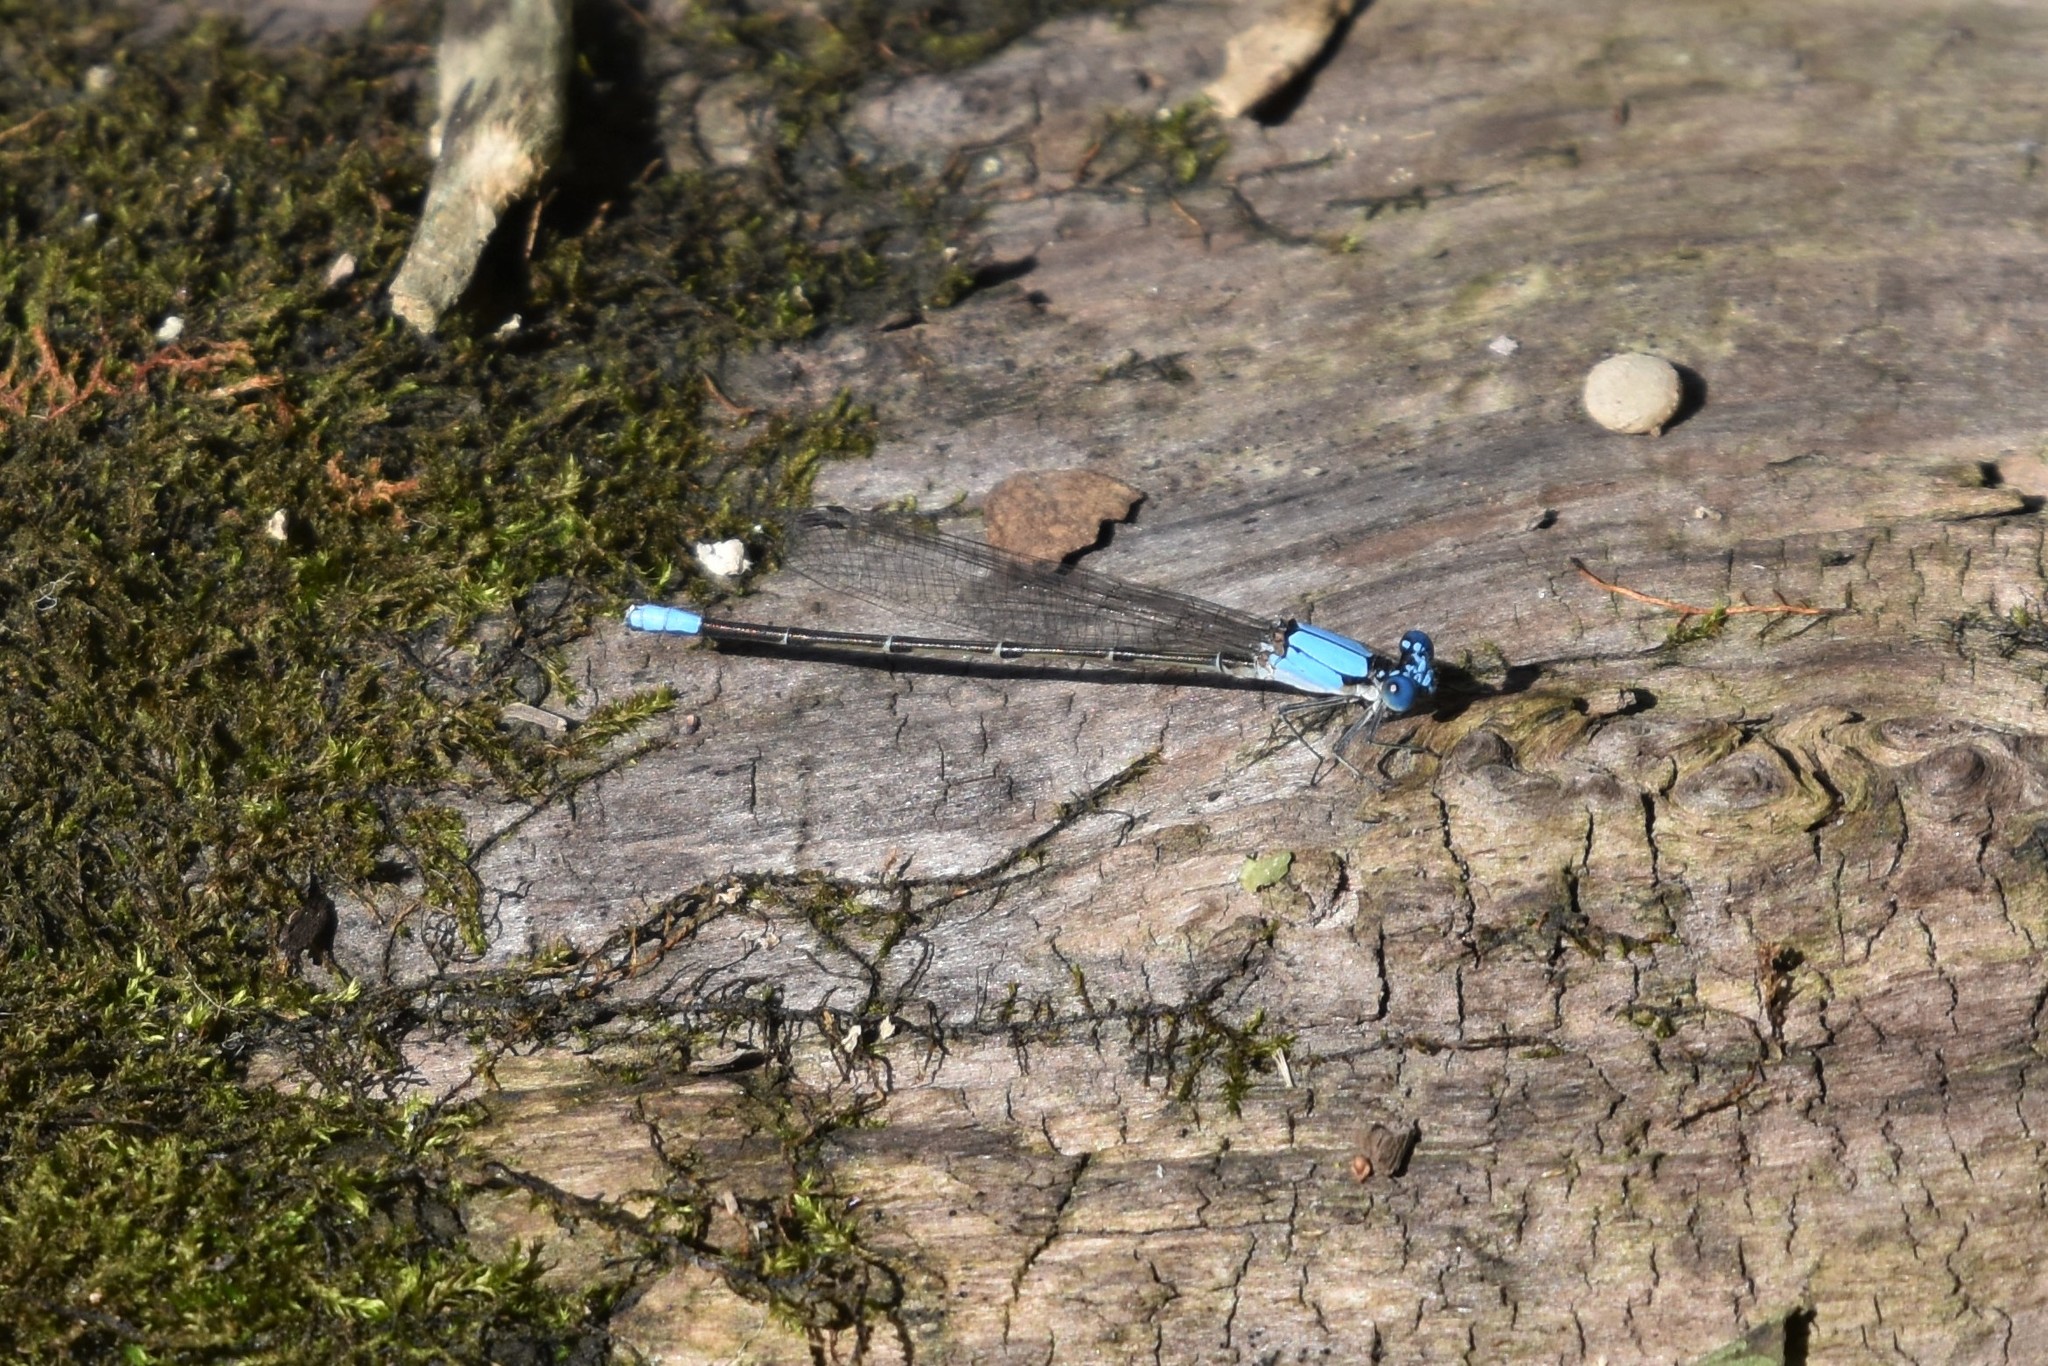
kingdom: Animalia
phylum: Arthropoda
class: Insecta
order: Odonata
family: Coenagrionidae
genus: Argia
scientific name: Argia apicalis
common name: Blue-fronted dancer
